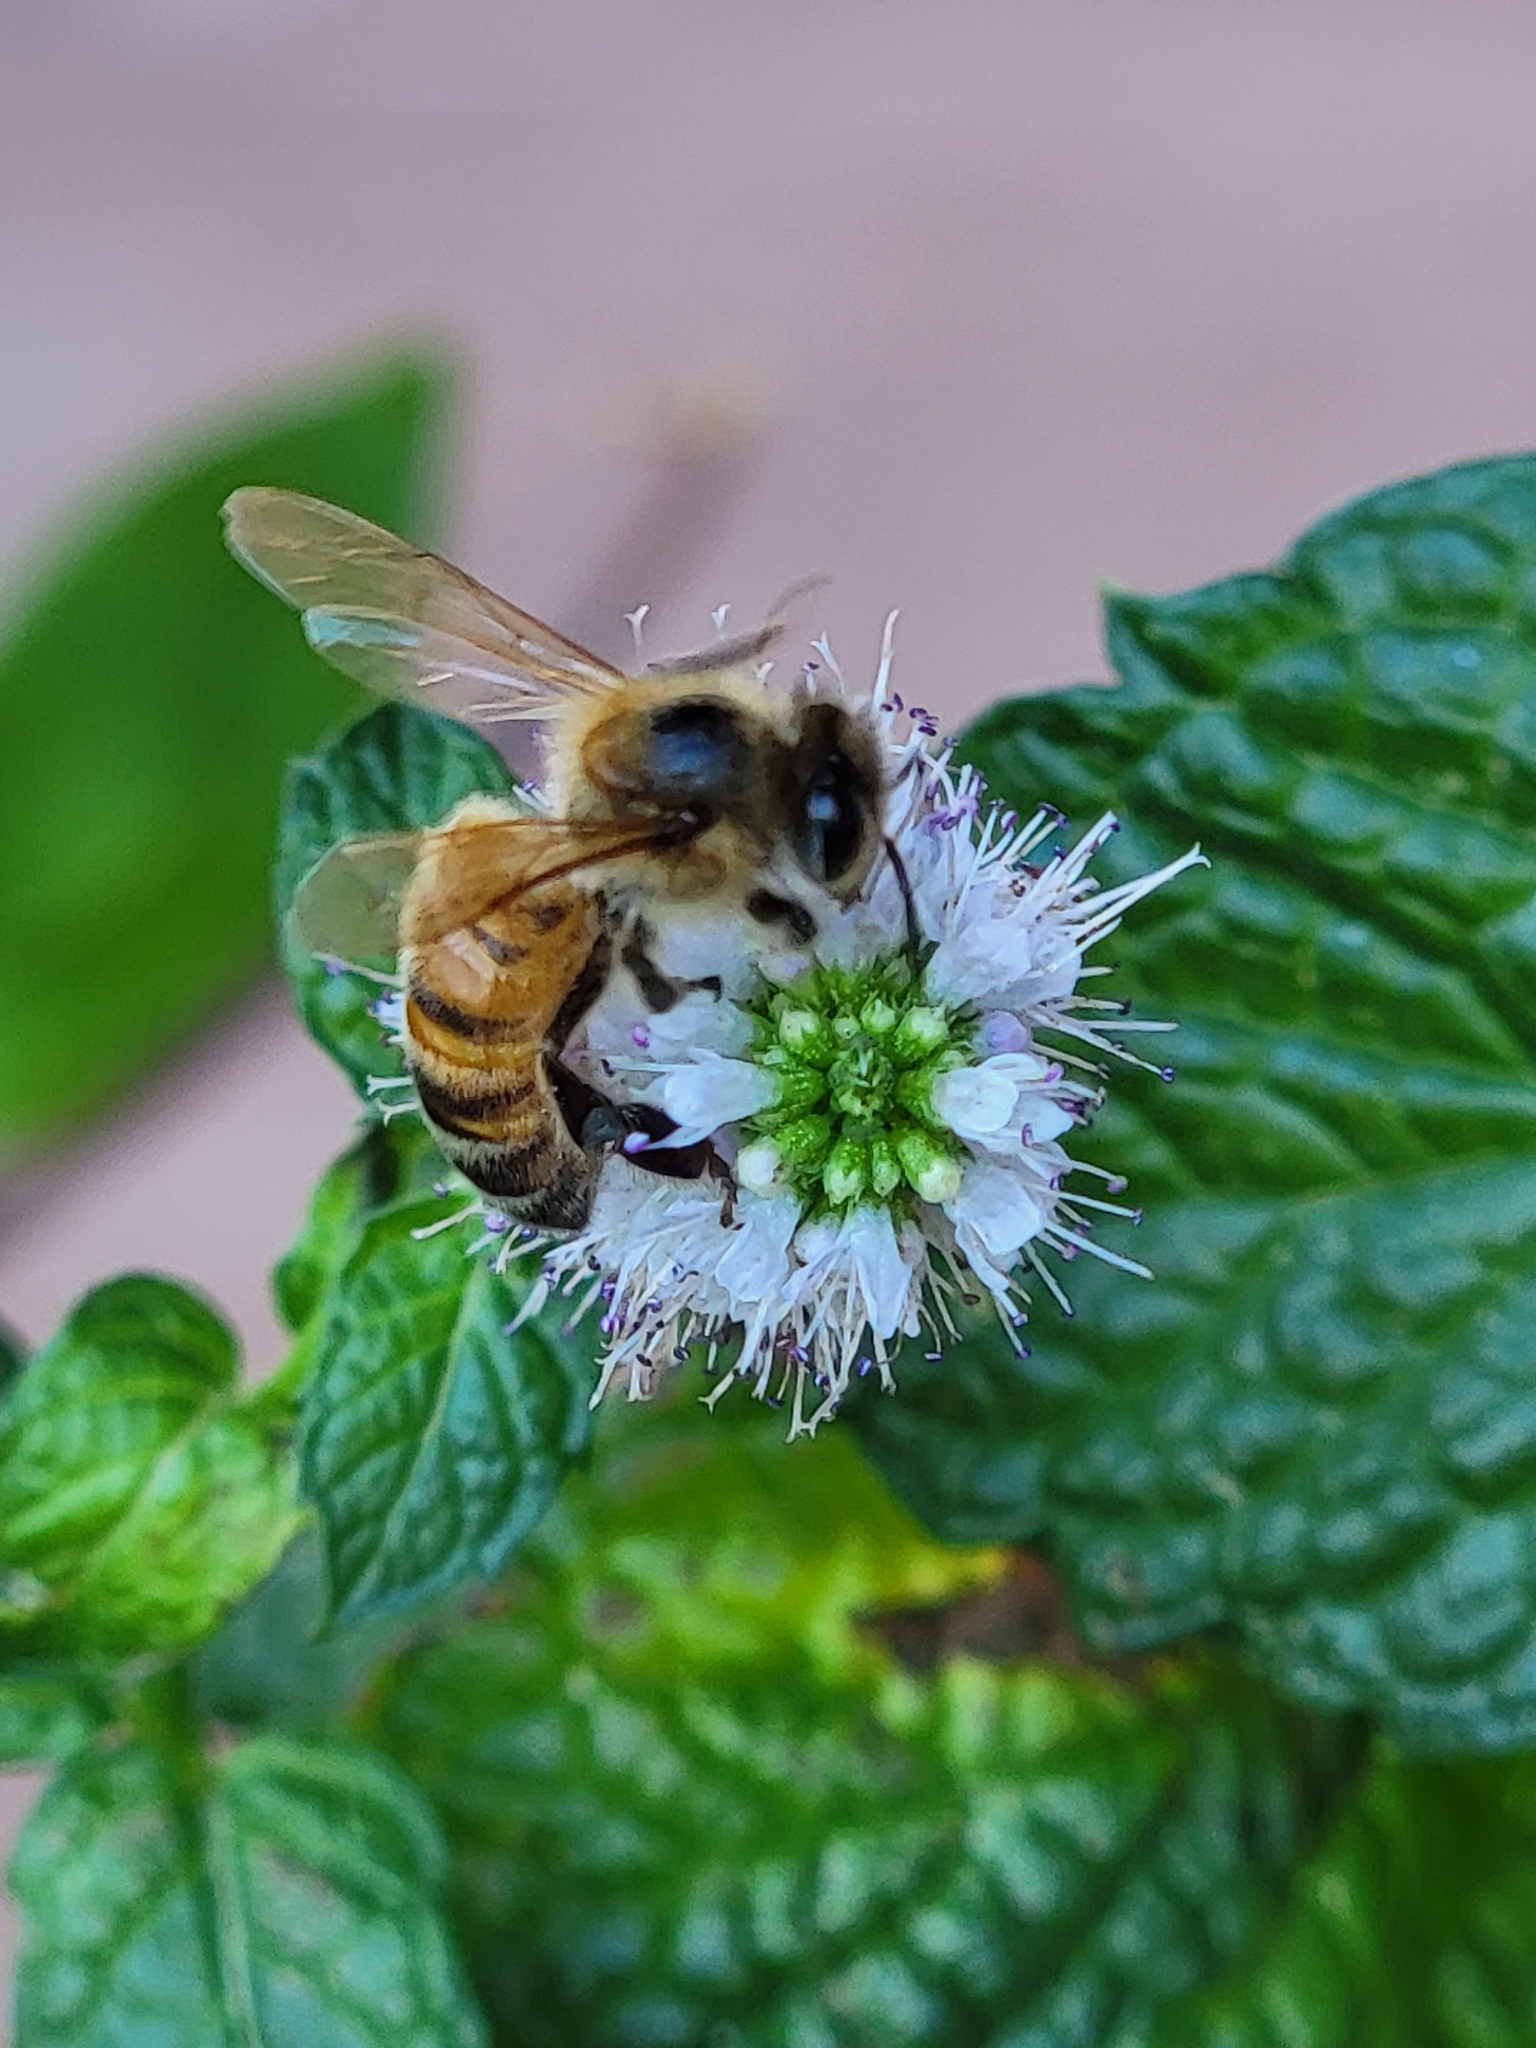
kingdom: Animalia
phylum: Arthropoda
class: Insecta
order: Hymenoptera
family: Apidae
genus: Apis
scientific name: Apis mellifera
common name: Honey bee
